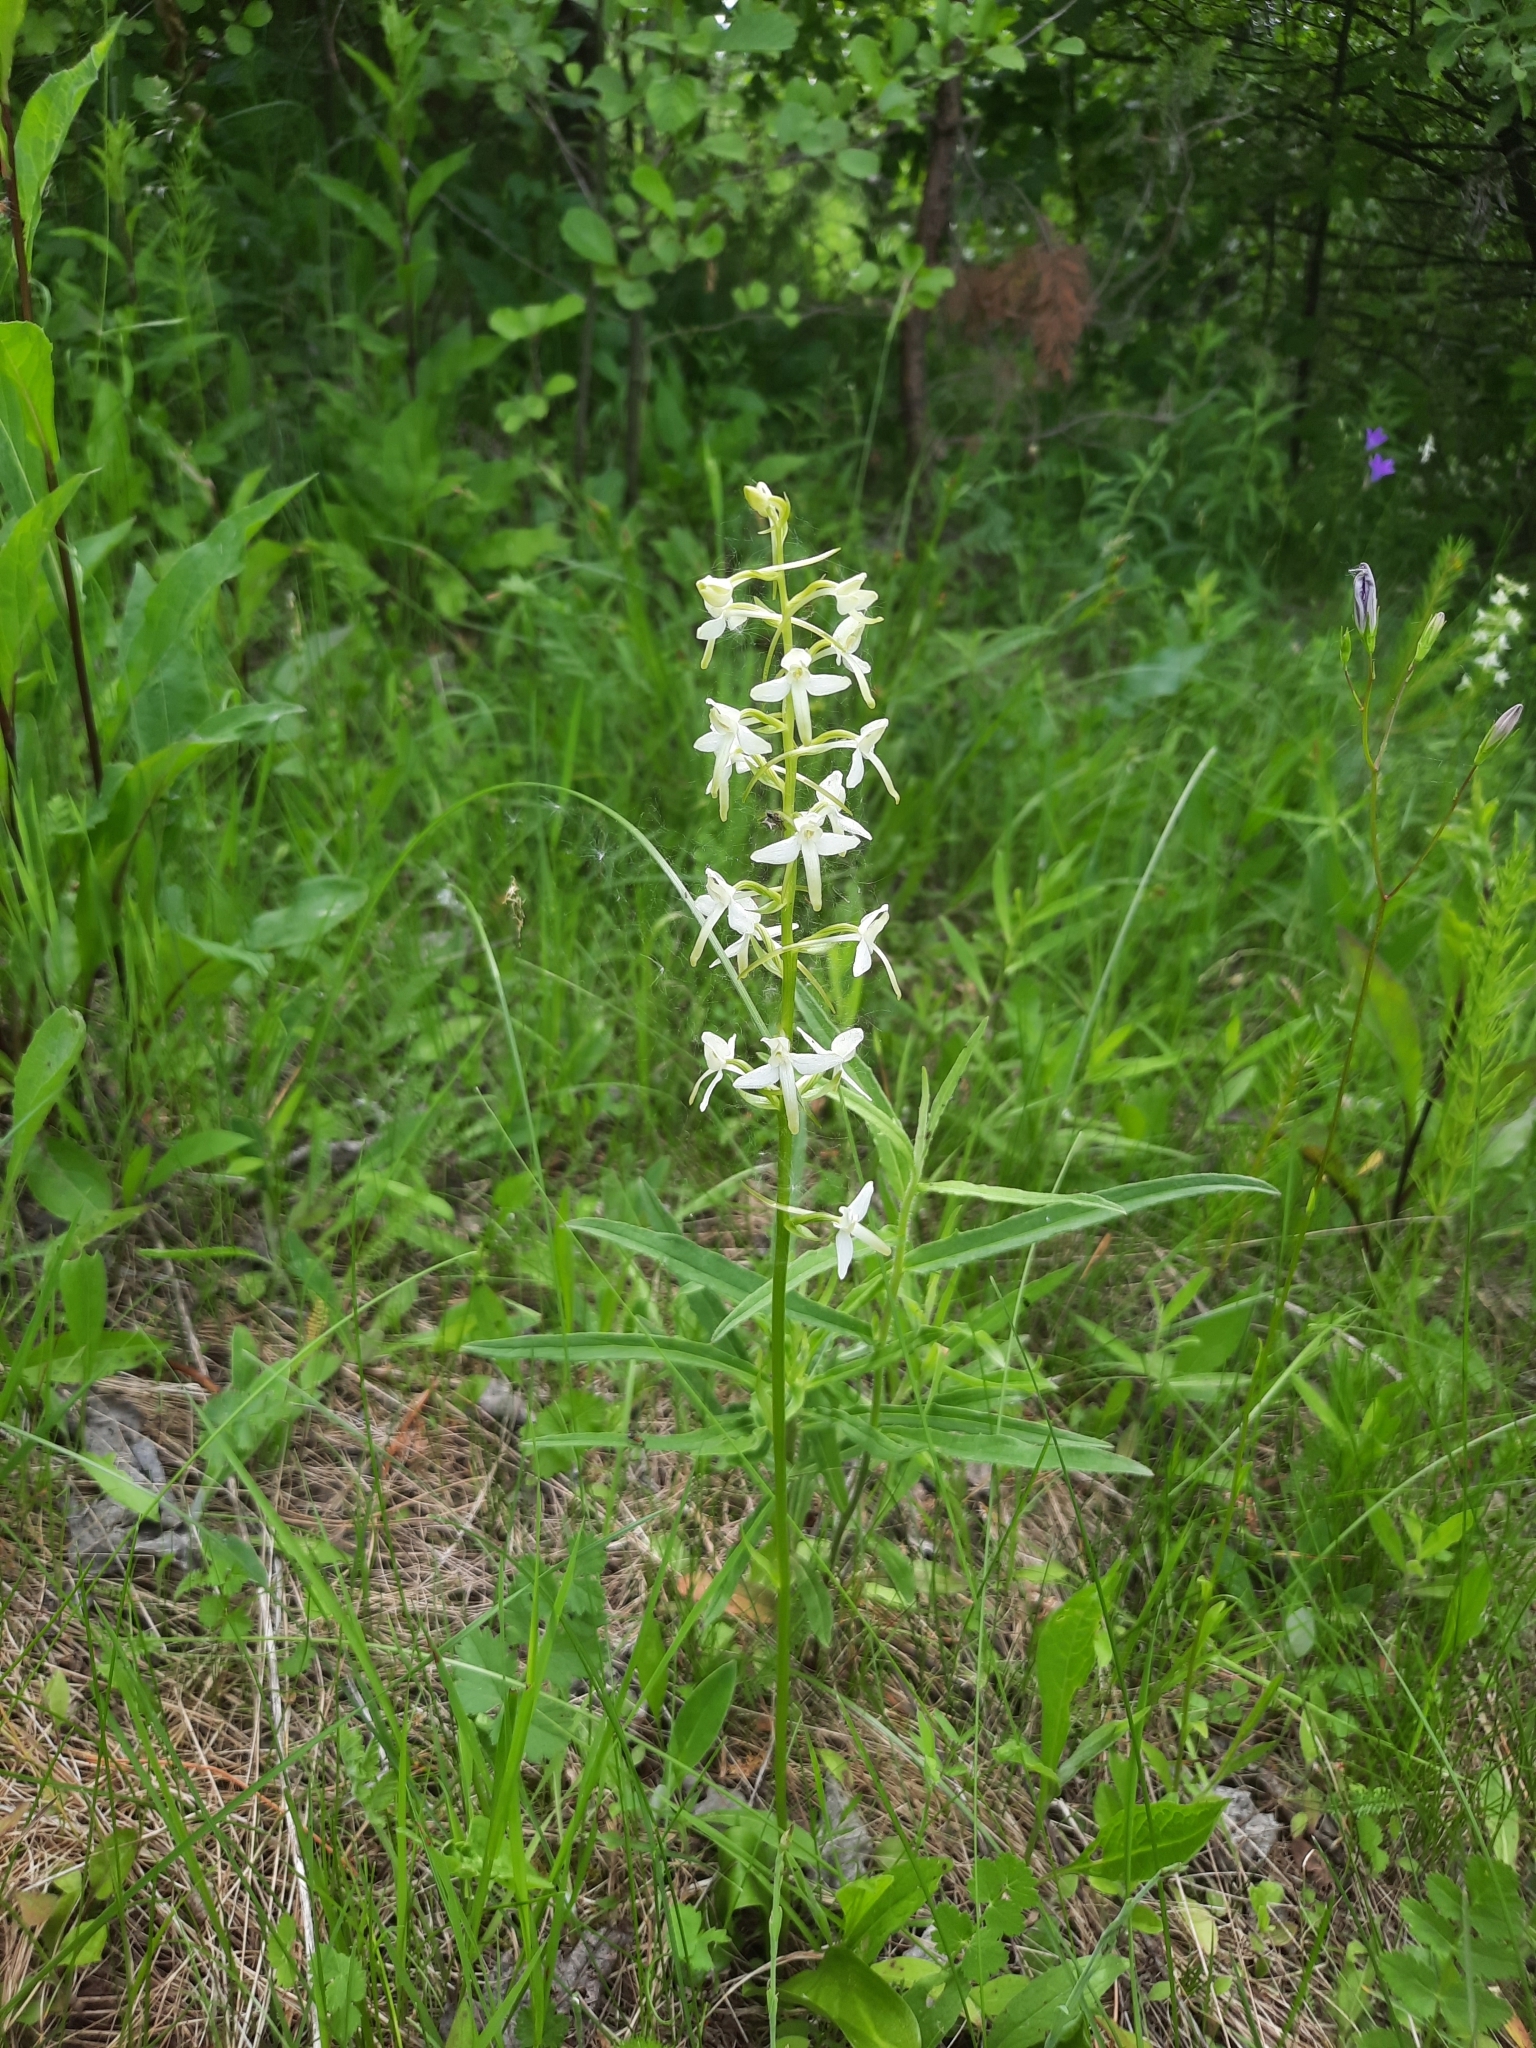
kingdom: Plantae
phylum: Tracheophyta
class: Liliopsida
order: Asparagales
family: Orchidaceae
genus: Platanthera
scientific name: Platanthera bifolia
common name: Lesser butterfly-orchid
